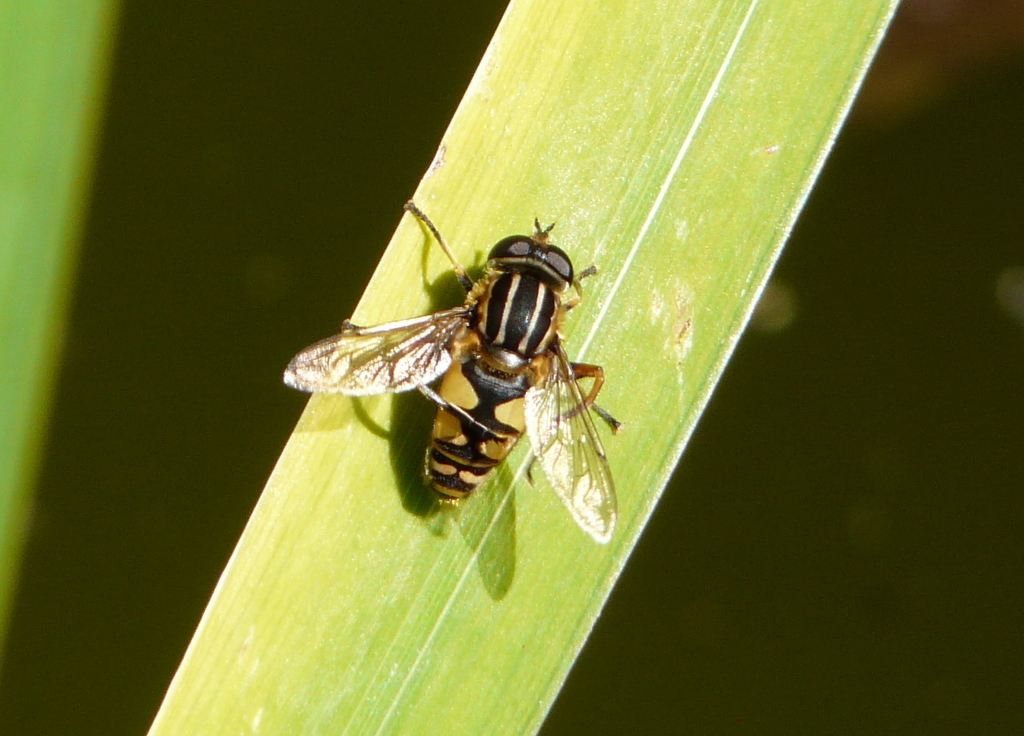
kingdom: Animalia
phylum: Arthropoda
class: Insecta
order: Diptera
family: Syrphidae
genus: Helophilus
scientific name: Helophilus pendulus
